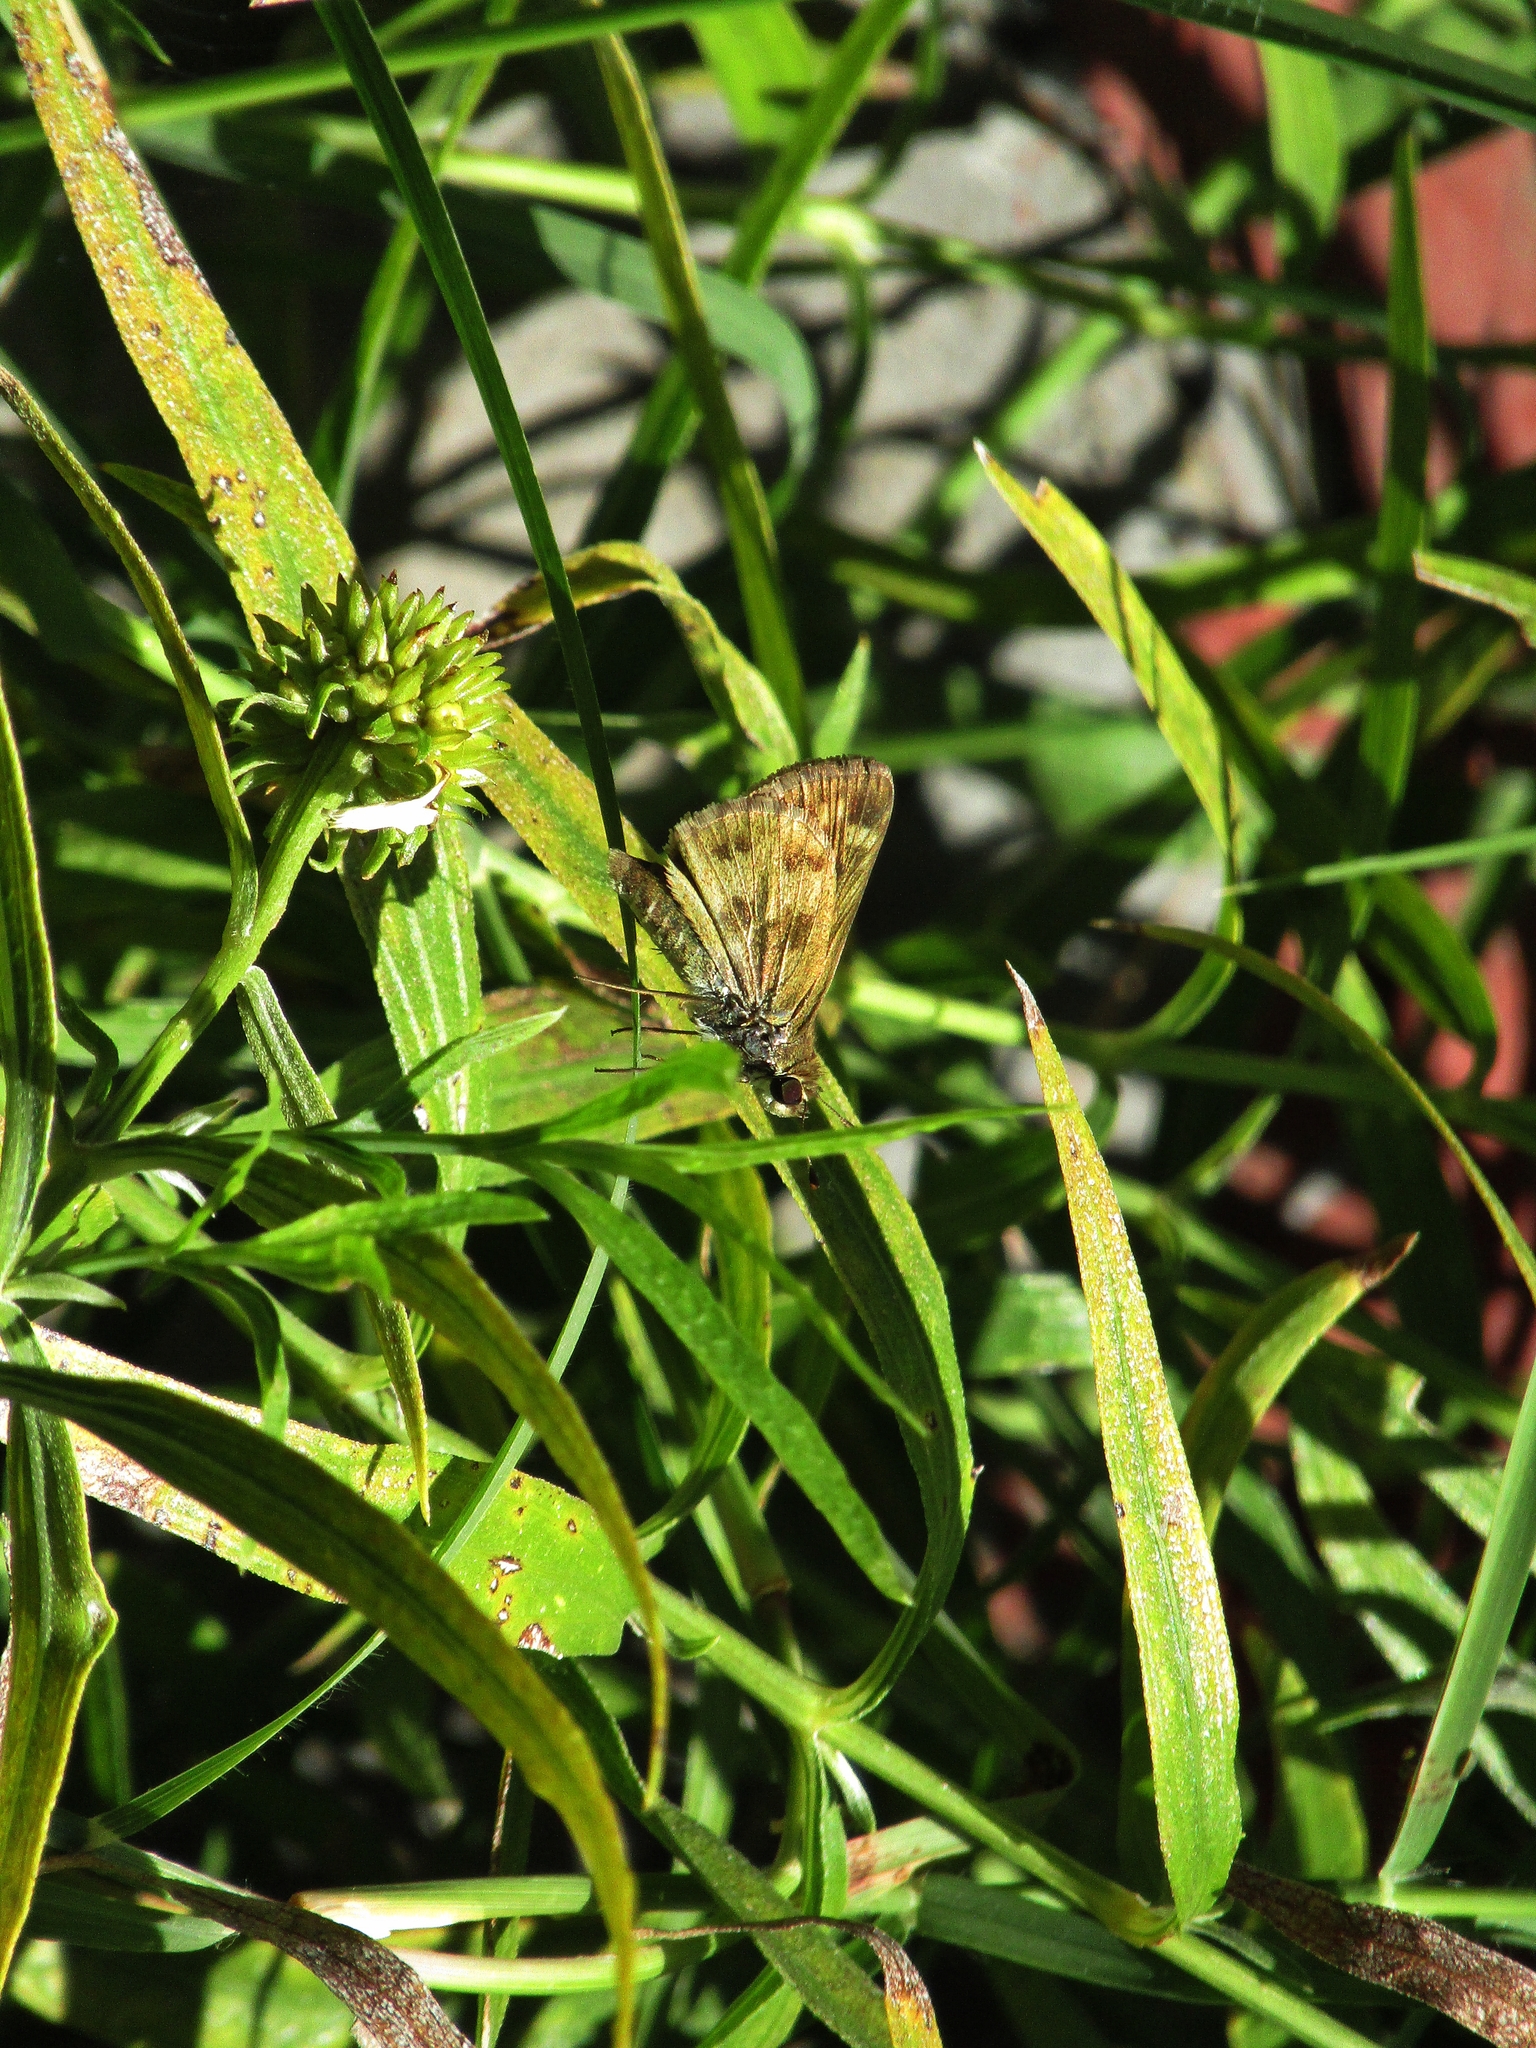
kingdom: Animalia
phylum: Arthropoda
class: Insecta
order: Lepidoptera
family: Hesperiidae
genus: Polites
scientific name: Polites vibex
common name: Whirlabout
